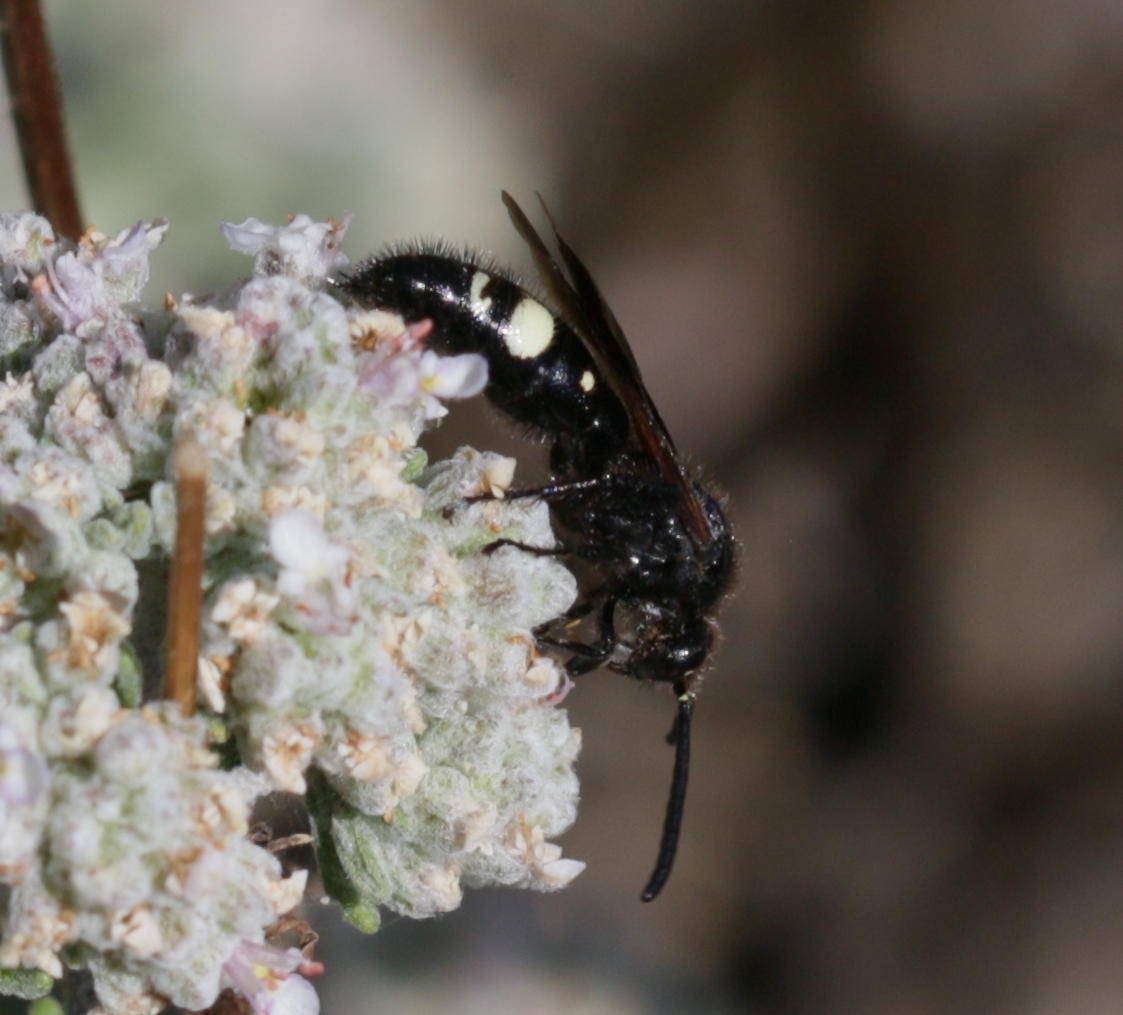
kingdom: Animalia
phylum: Arthropoda
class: Insecta
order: Hymenoptera
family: Vespidae
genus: Vespa
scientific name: Vespa sexmaculata
